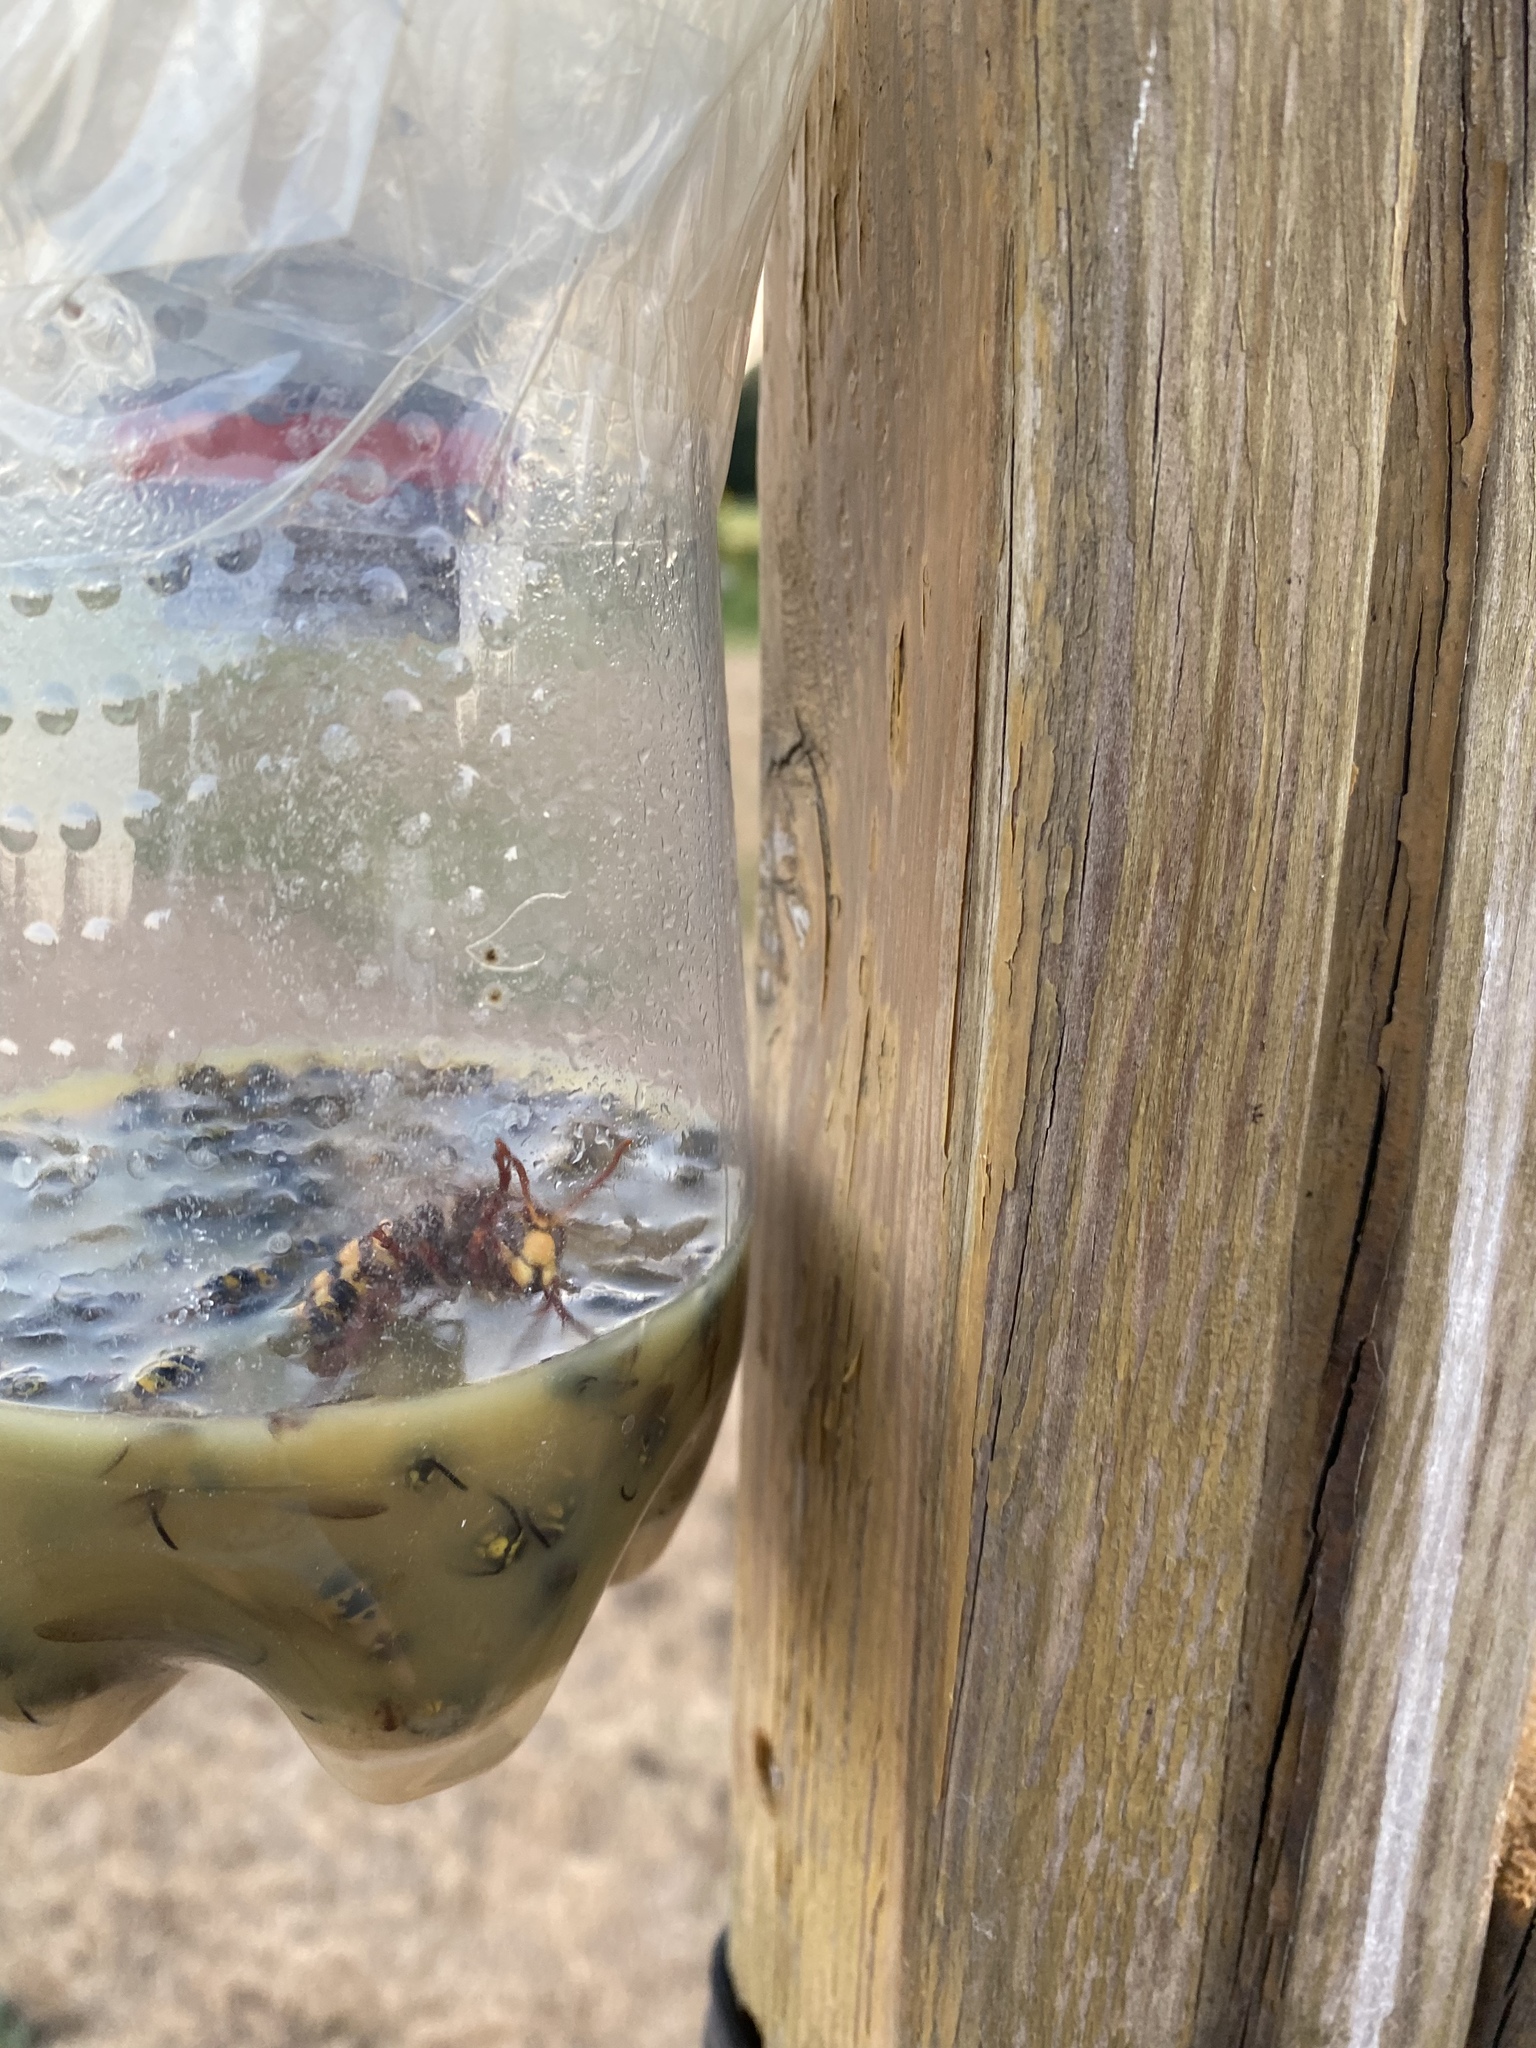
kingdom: Animalia
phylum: Arthropoda
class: Insecta
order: Hymenoptera
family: Vespidae
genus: Vespa
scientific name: Vespa crabro
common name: Hornet
